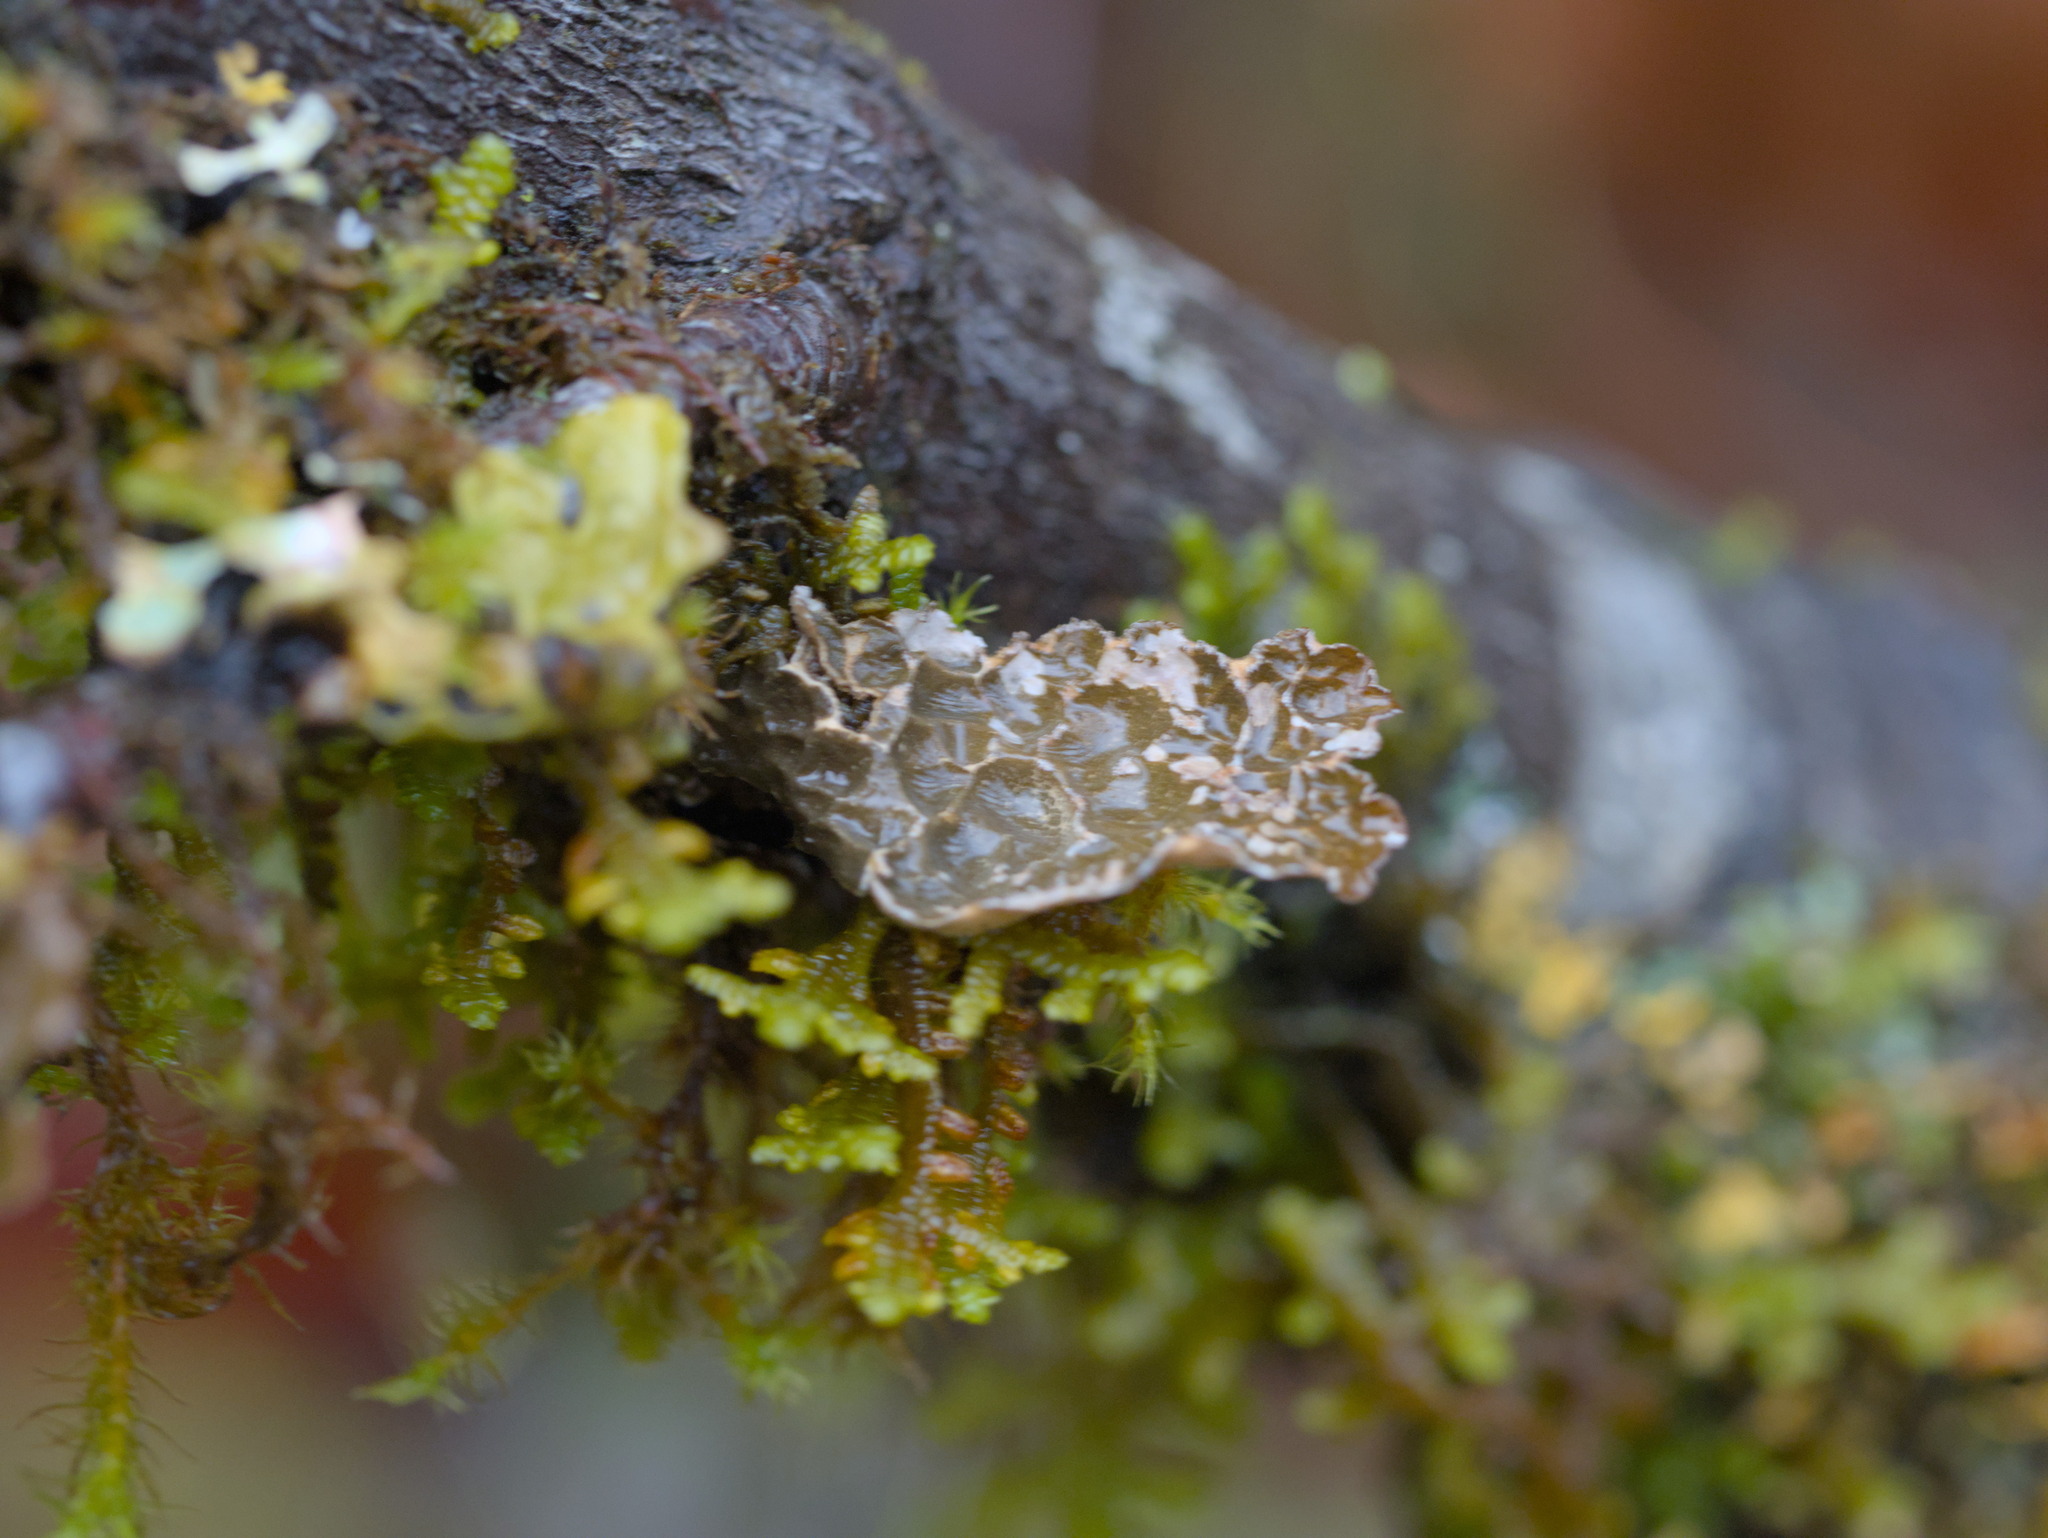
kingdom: Fungi
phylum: Ascomycota
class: Lecanoromycetes
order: Peltigerales
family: Lobariaceae
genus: Lobaria
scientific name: Lobaria anomala
